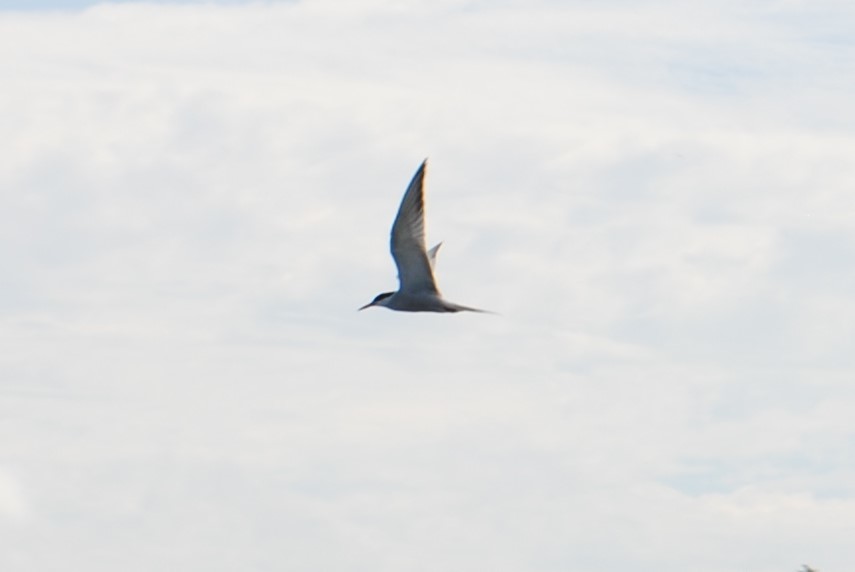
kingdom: Animalia
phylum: Chordata
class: Aves
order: Charadriiformes
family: Laridae
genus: Sterna
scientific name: Sterna hirundo
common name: Common tern
